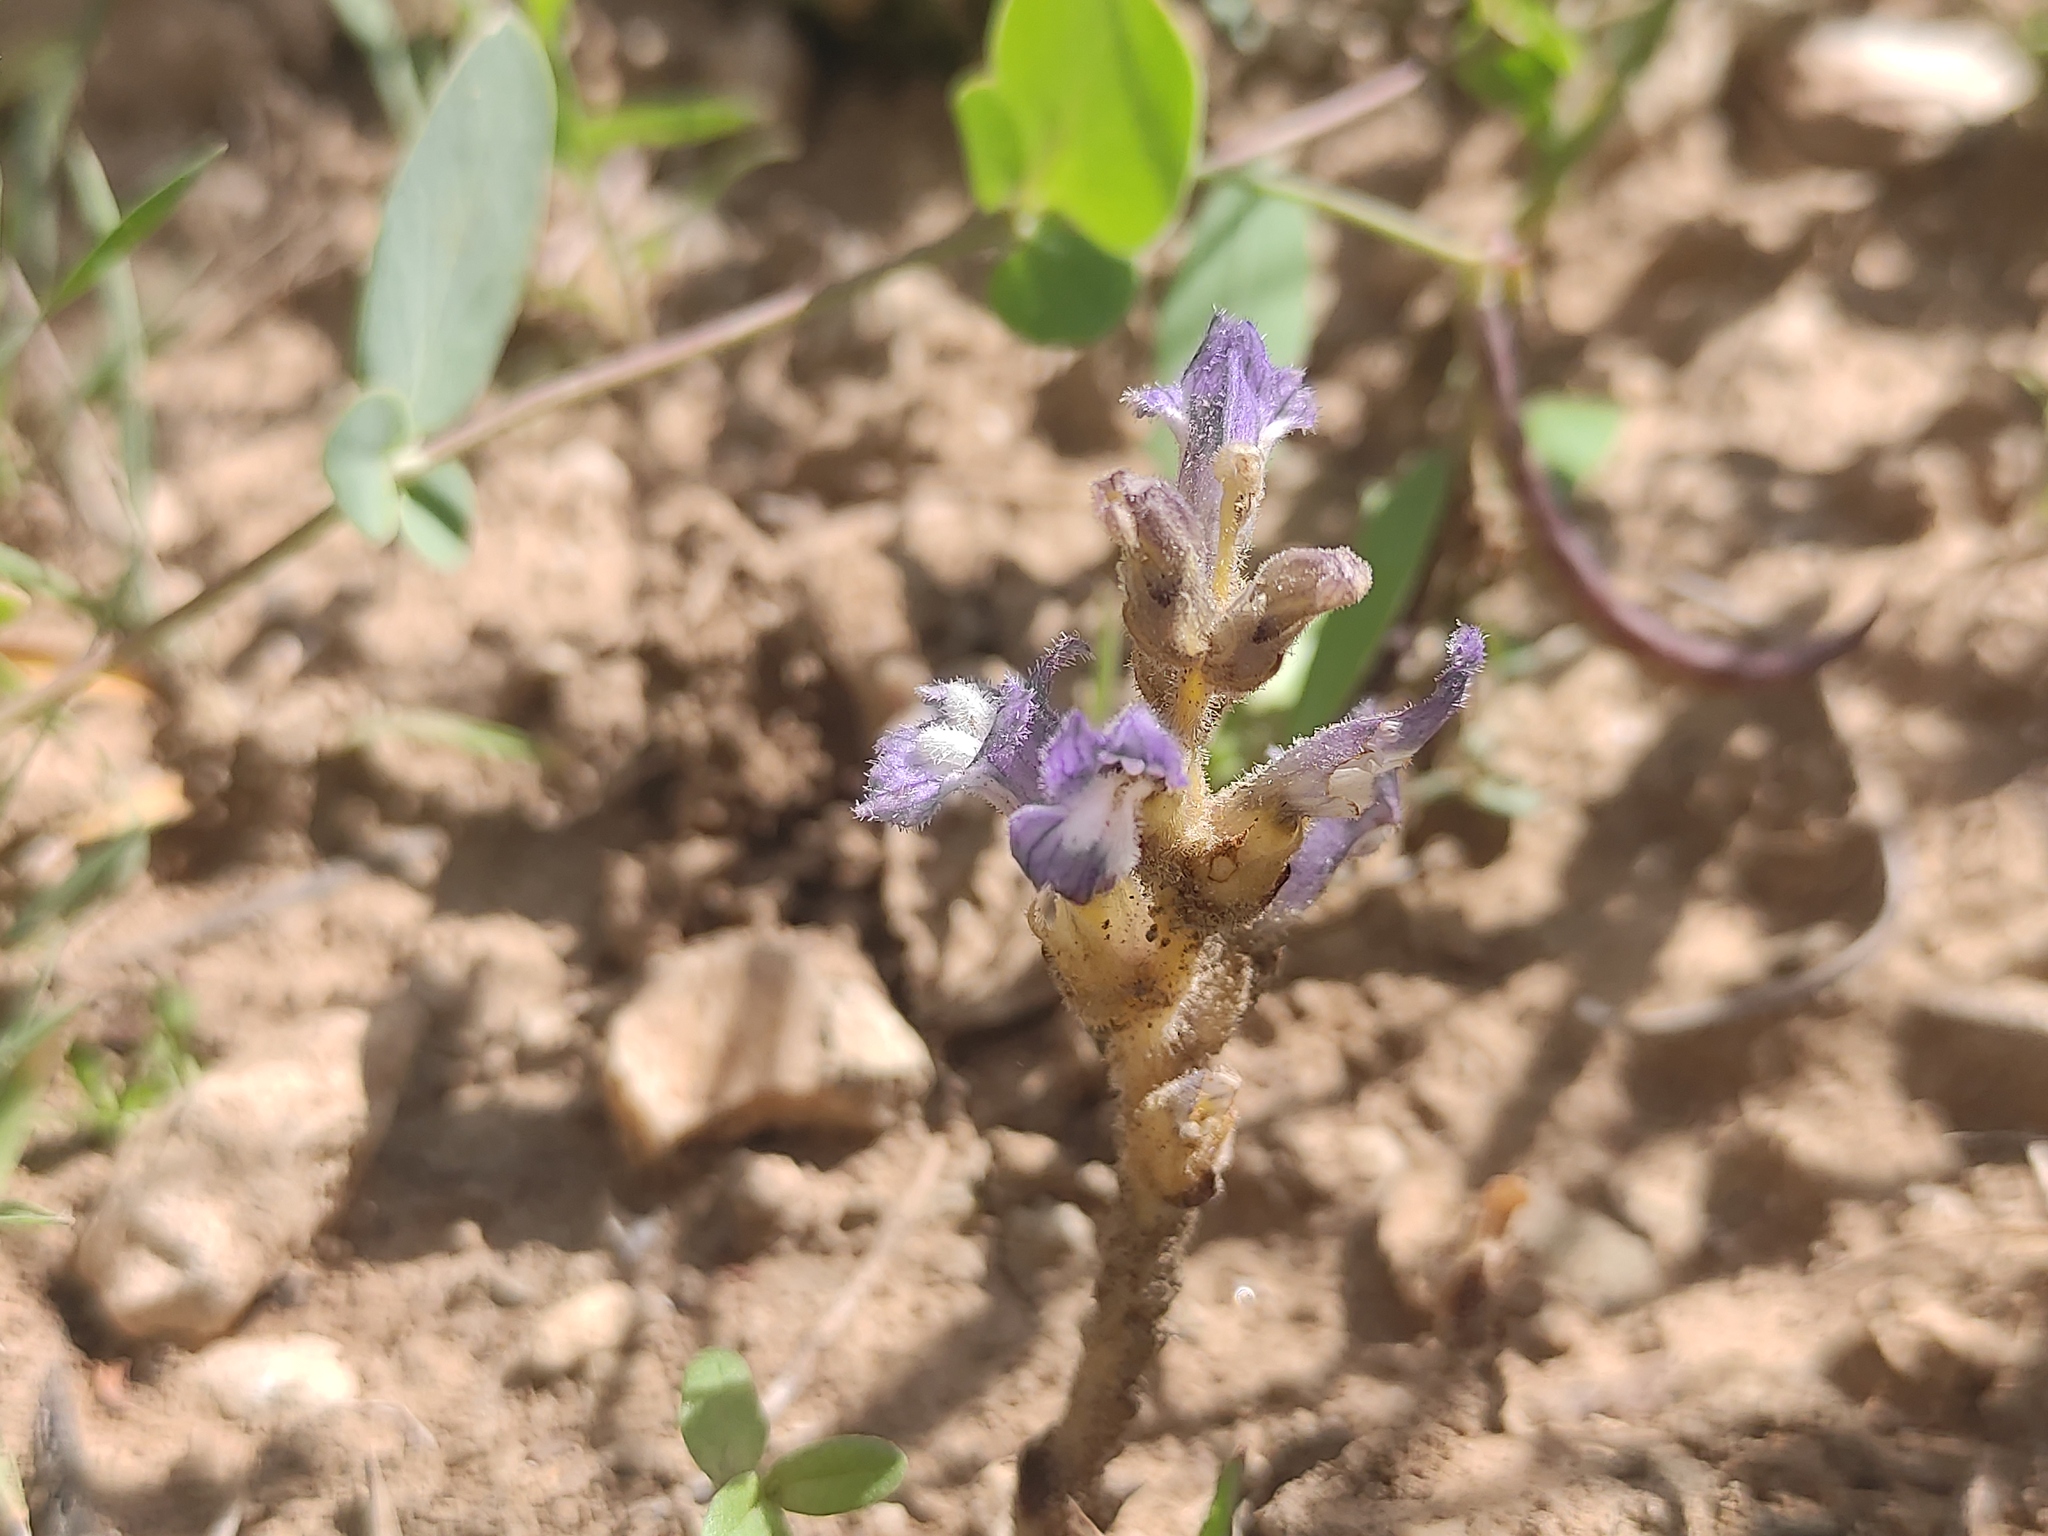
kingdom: Plantae
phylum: Tracheophyta
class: Magnoliopsida
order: Lamiales
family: Orobanchaceae
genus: Phelipanche
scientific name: Phelipanche mutelii
